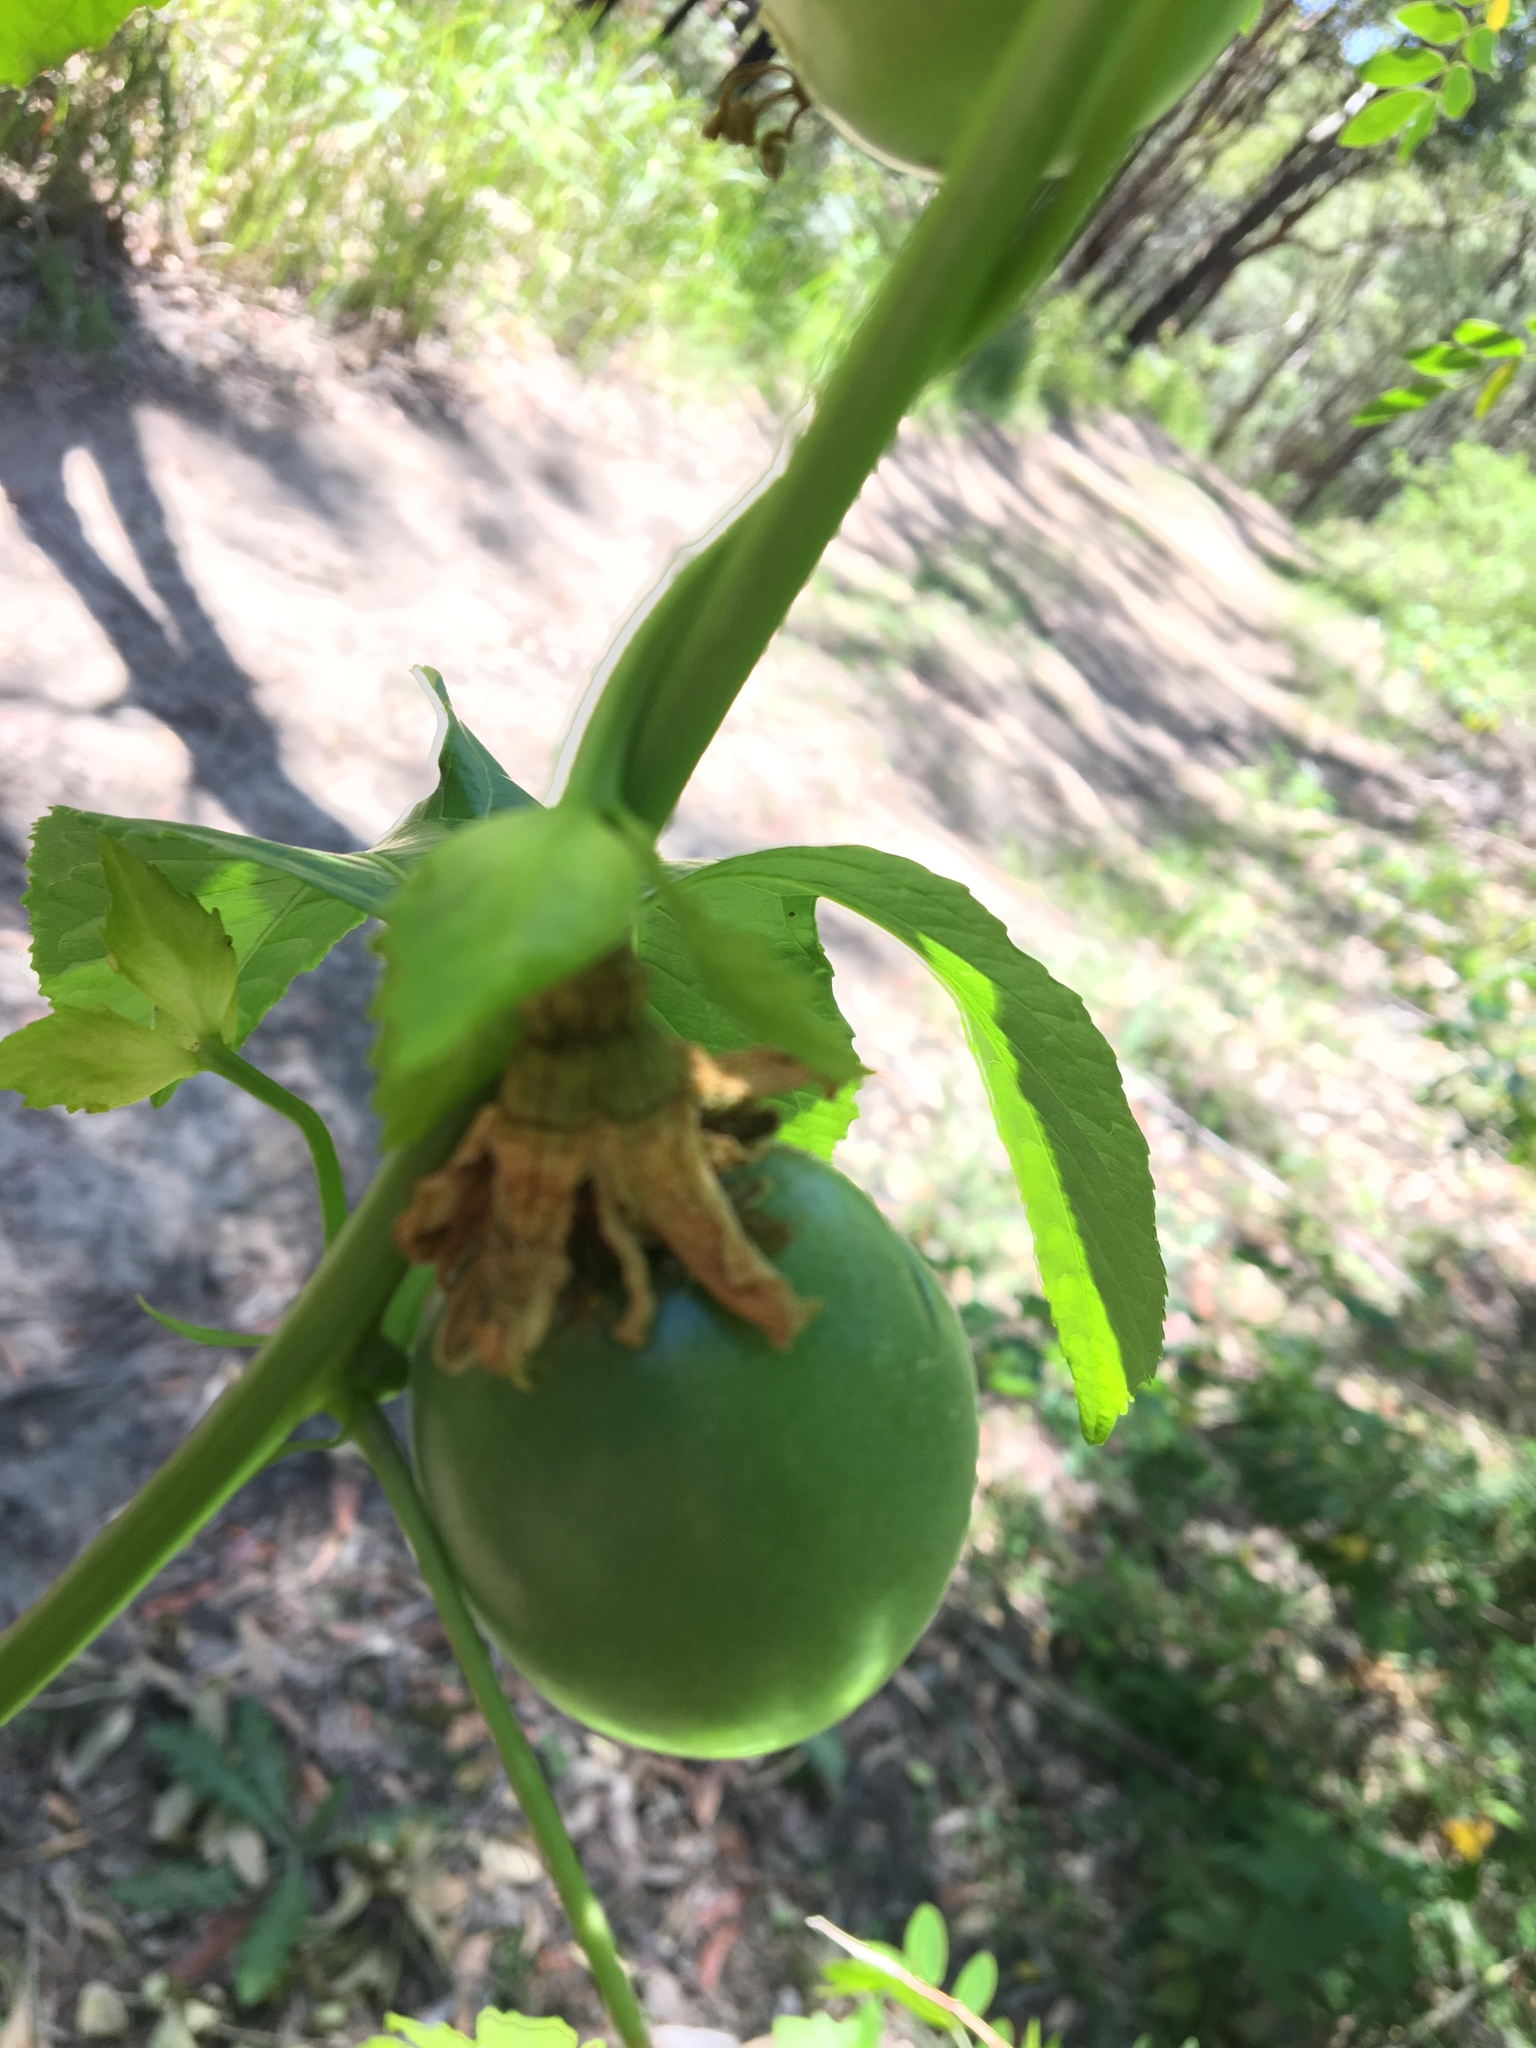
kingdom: Plantae
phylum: Tracheophyta
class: Magnoliopsida
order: Malpighiales
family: Passifloraceae
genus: Passiflora
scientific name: Passiflora edulis
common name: Purple granadilla
